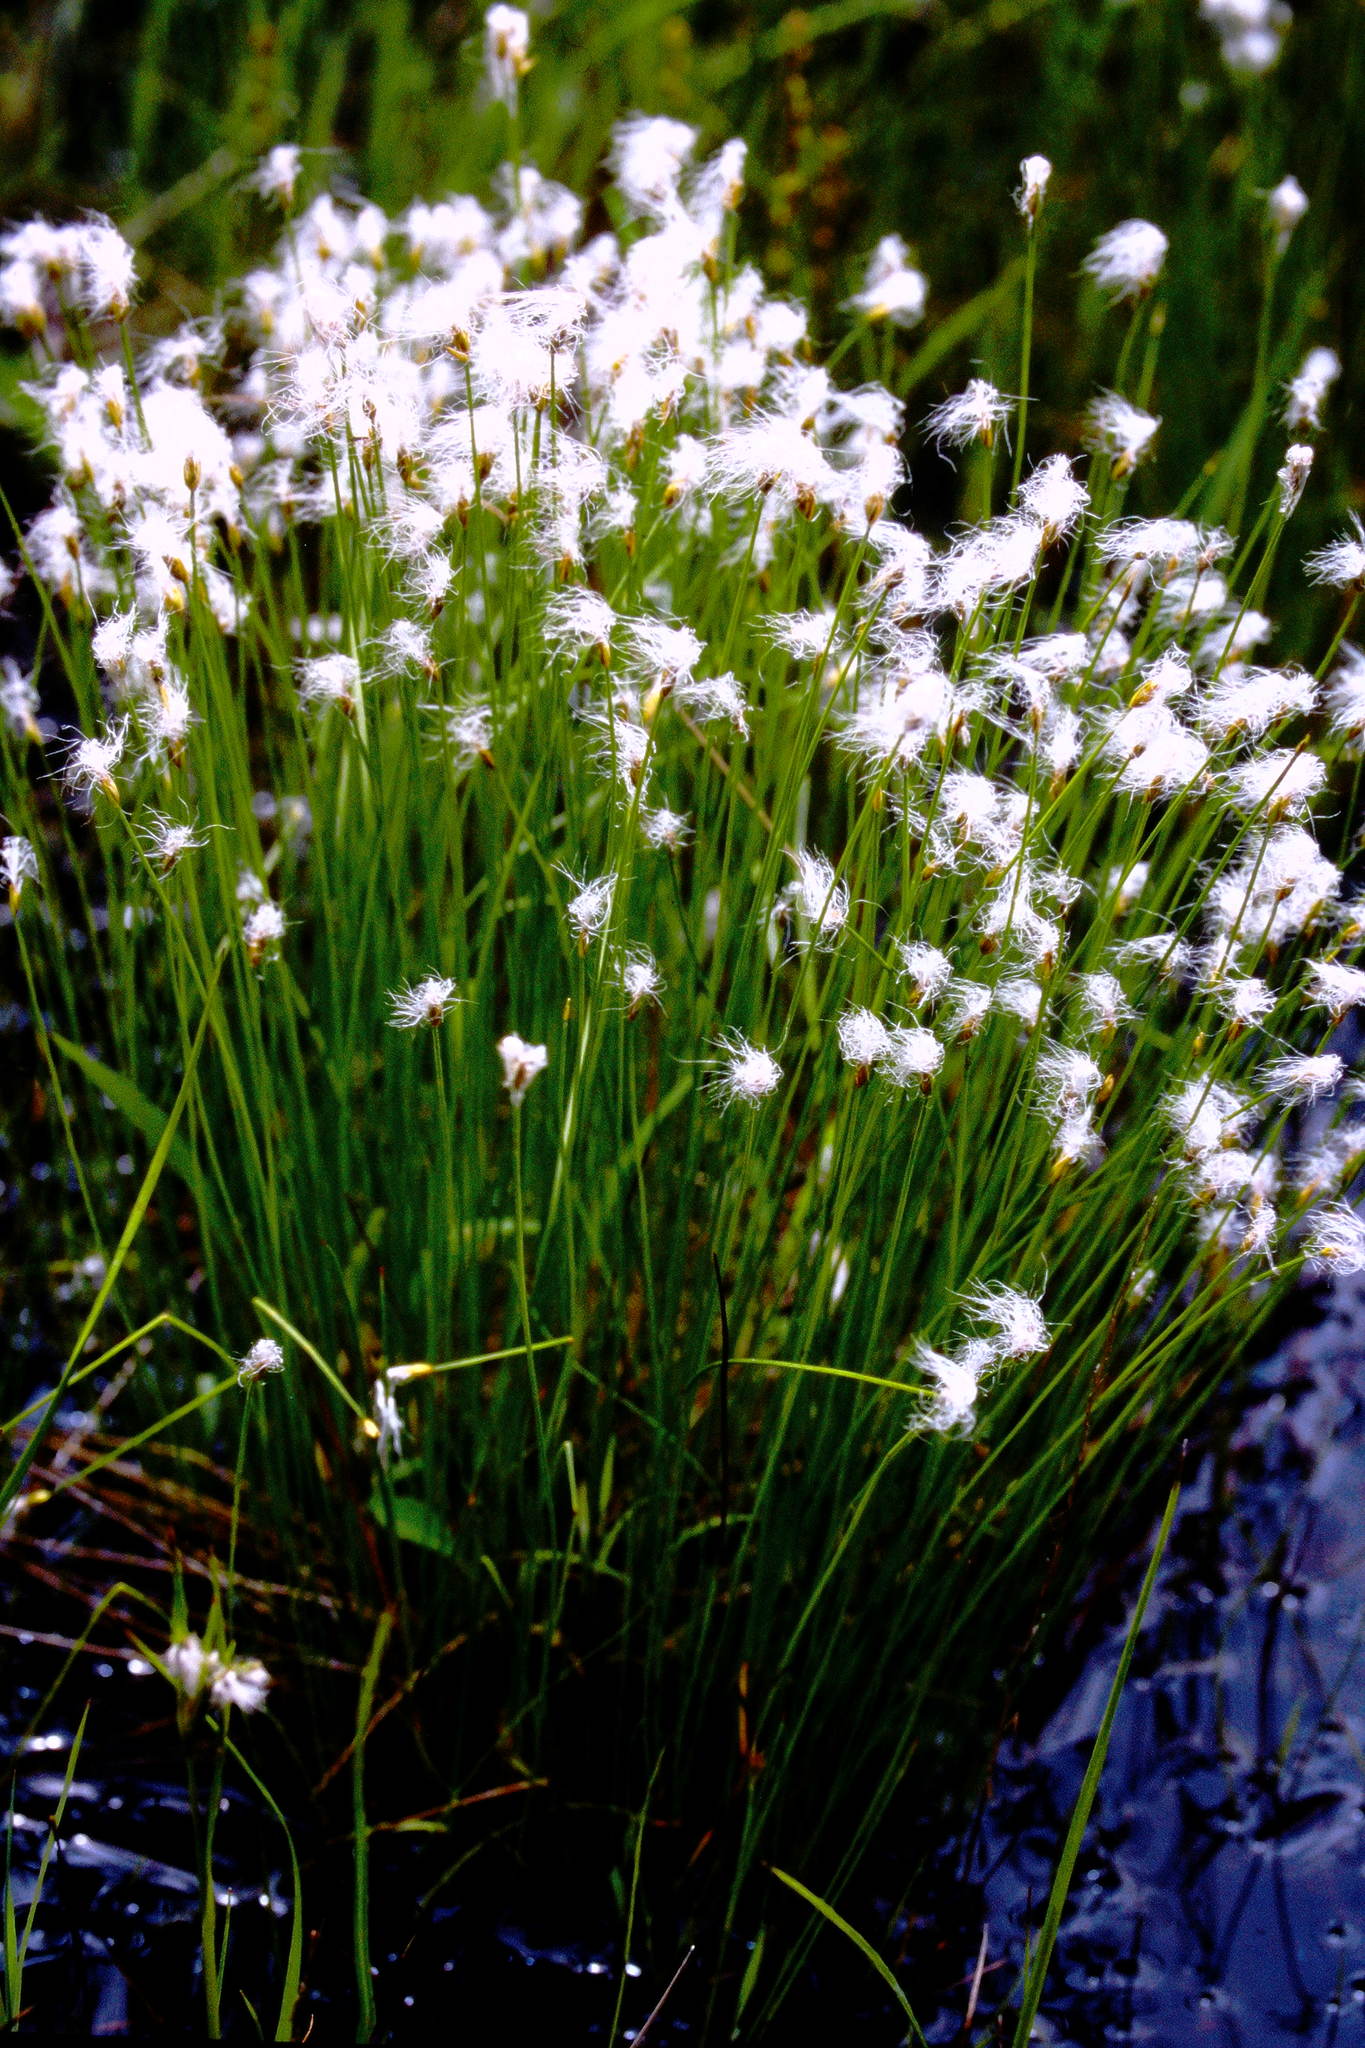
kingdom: Plantae
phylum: Tracheophyta
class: Liliopsida
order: Poales
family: Cyperaceae
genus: Trichophorum
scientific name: Trichophorum alpinum
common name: Alpine bulrush
